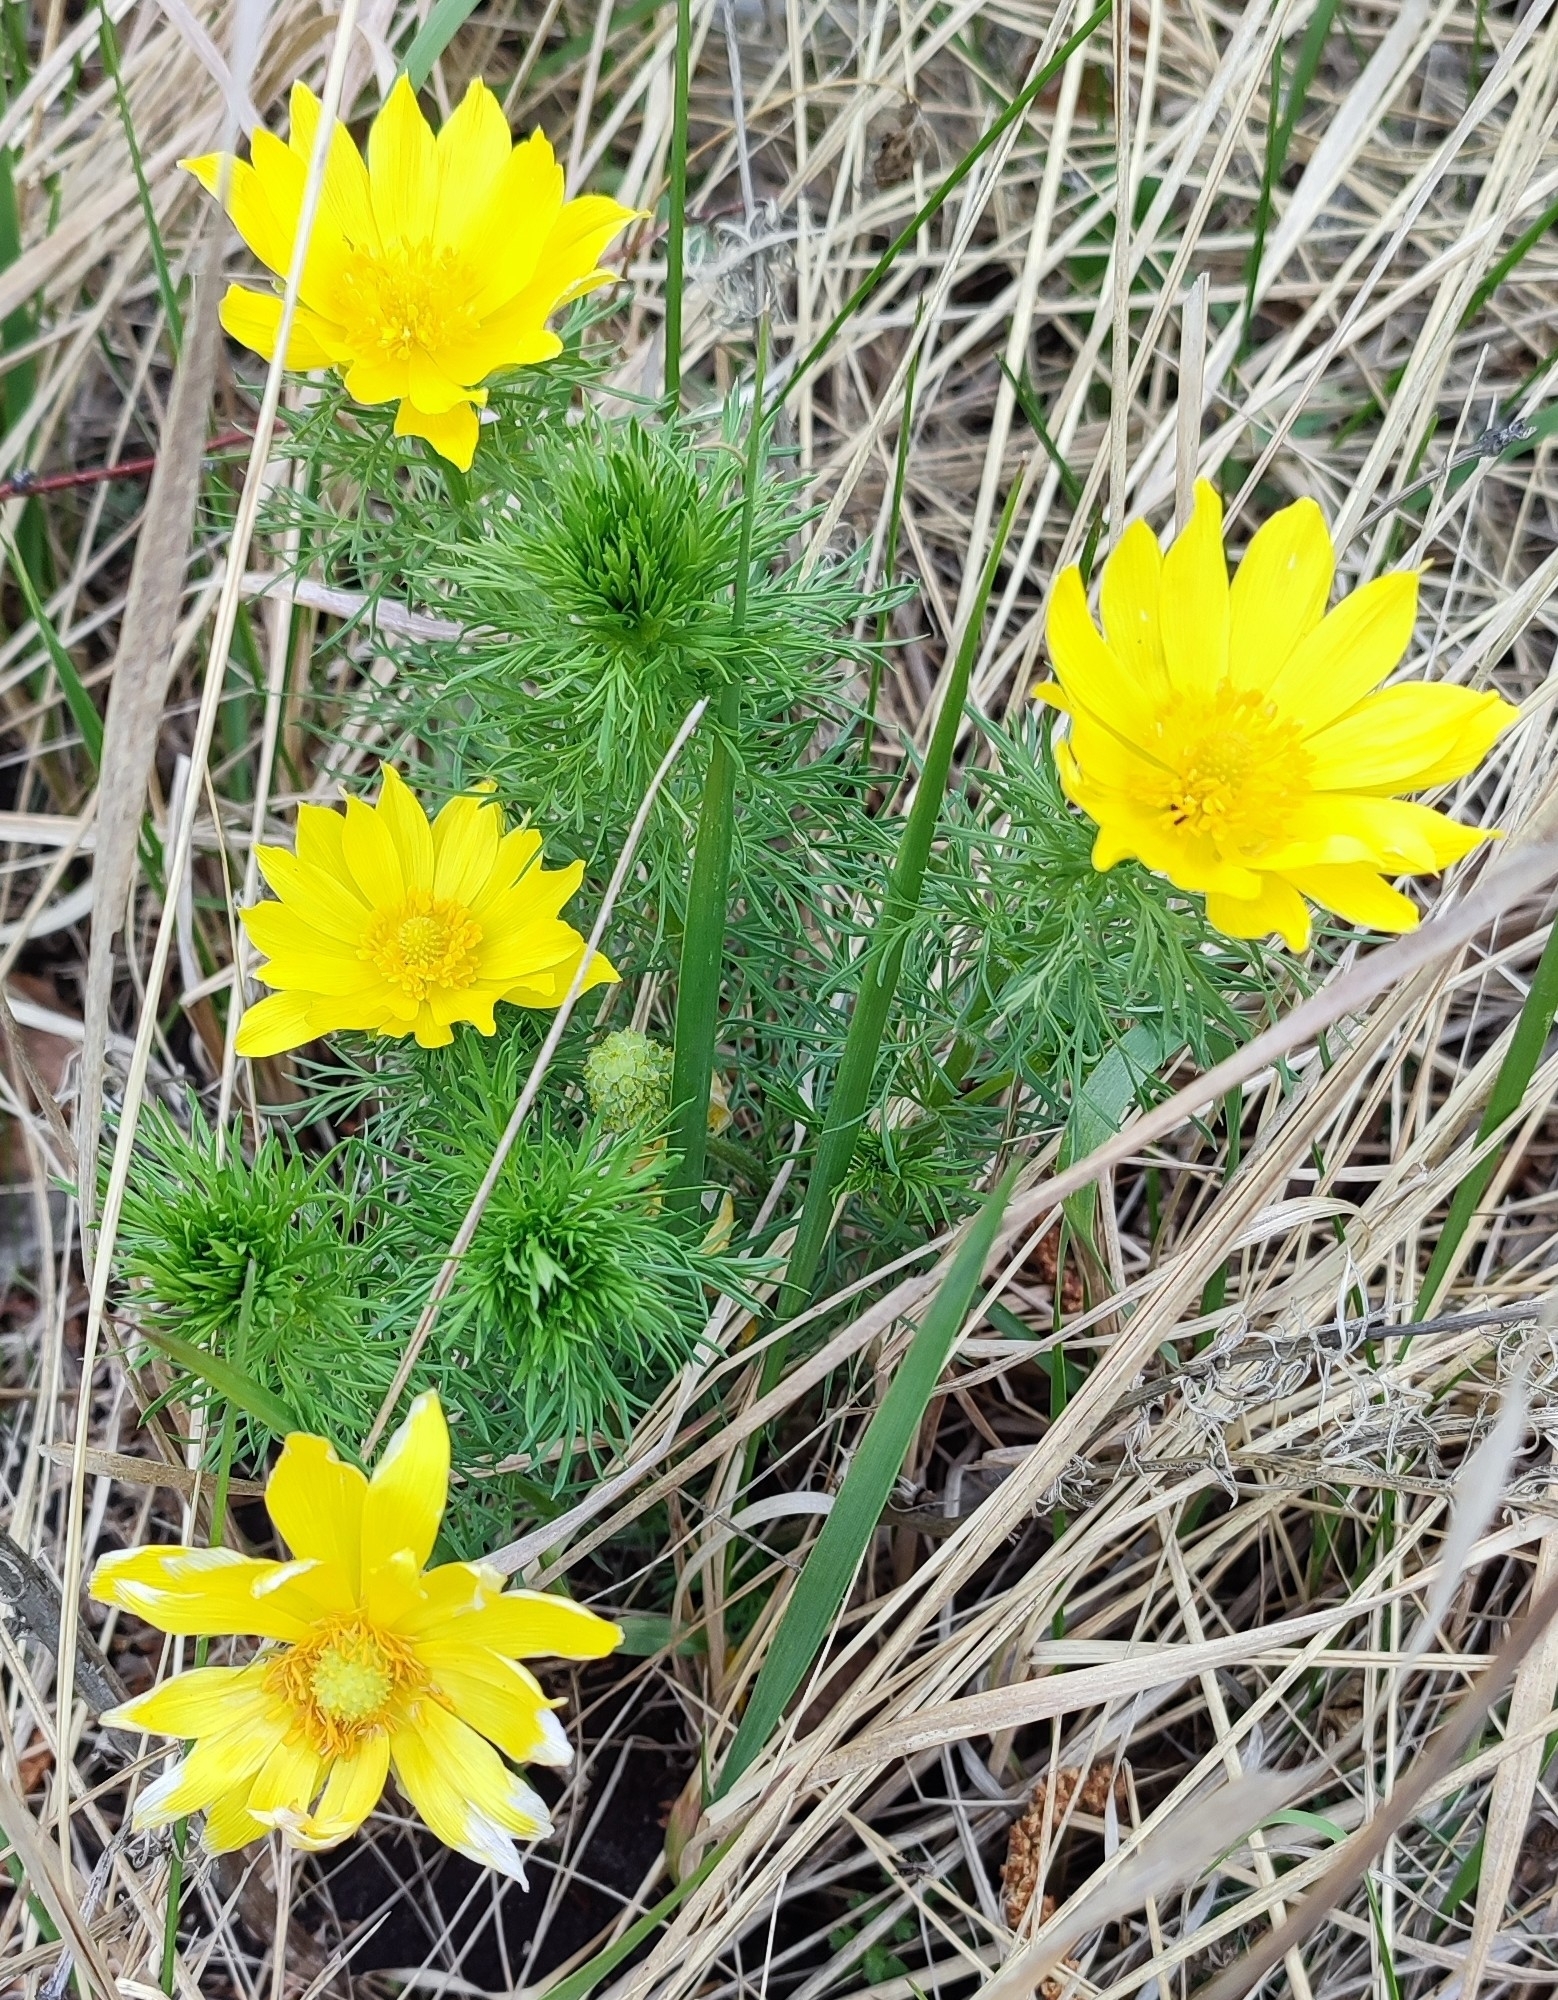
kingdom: Plantae
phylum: Tracheophyta
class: Magnoliopsida
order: Ranunculales
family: Ranunculaceae
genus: Adonis
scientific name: Adonis vernalis
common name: Yellow pheasants-eye
